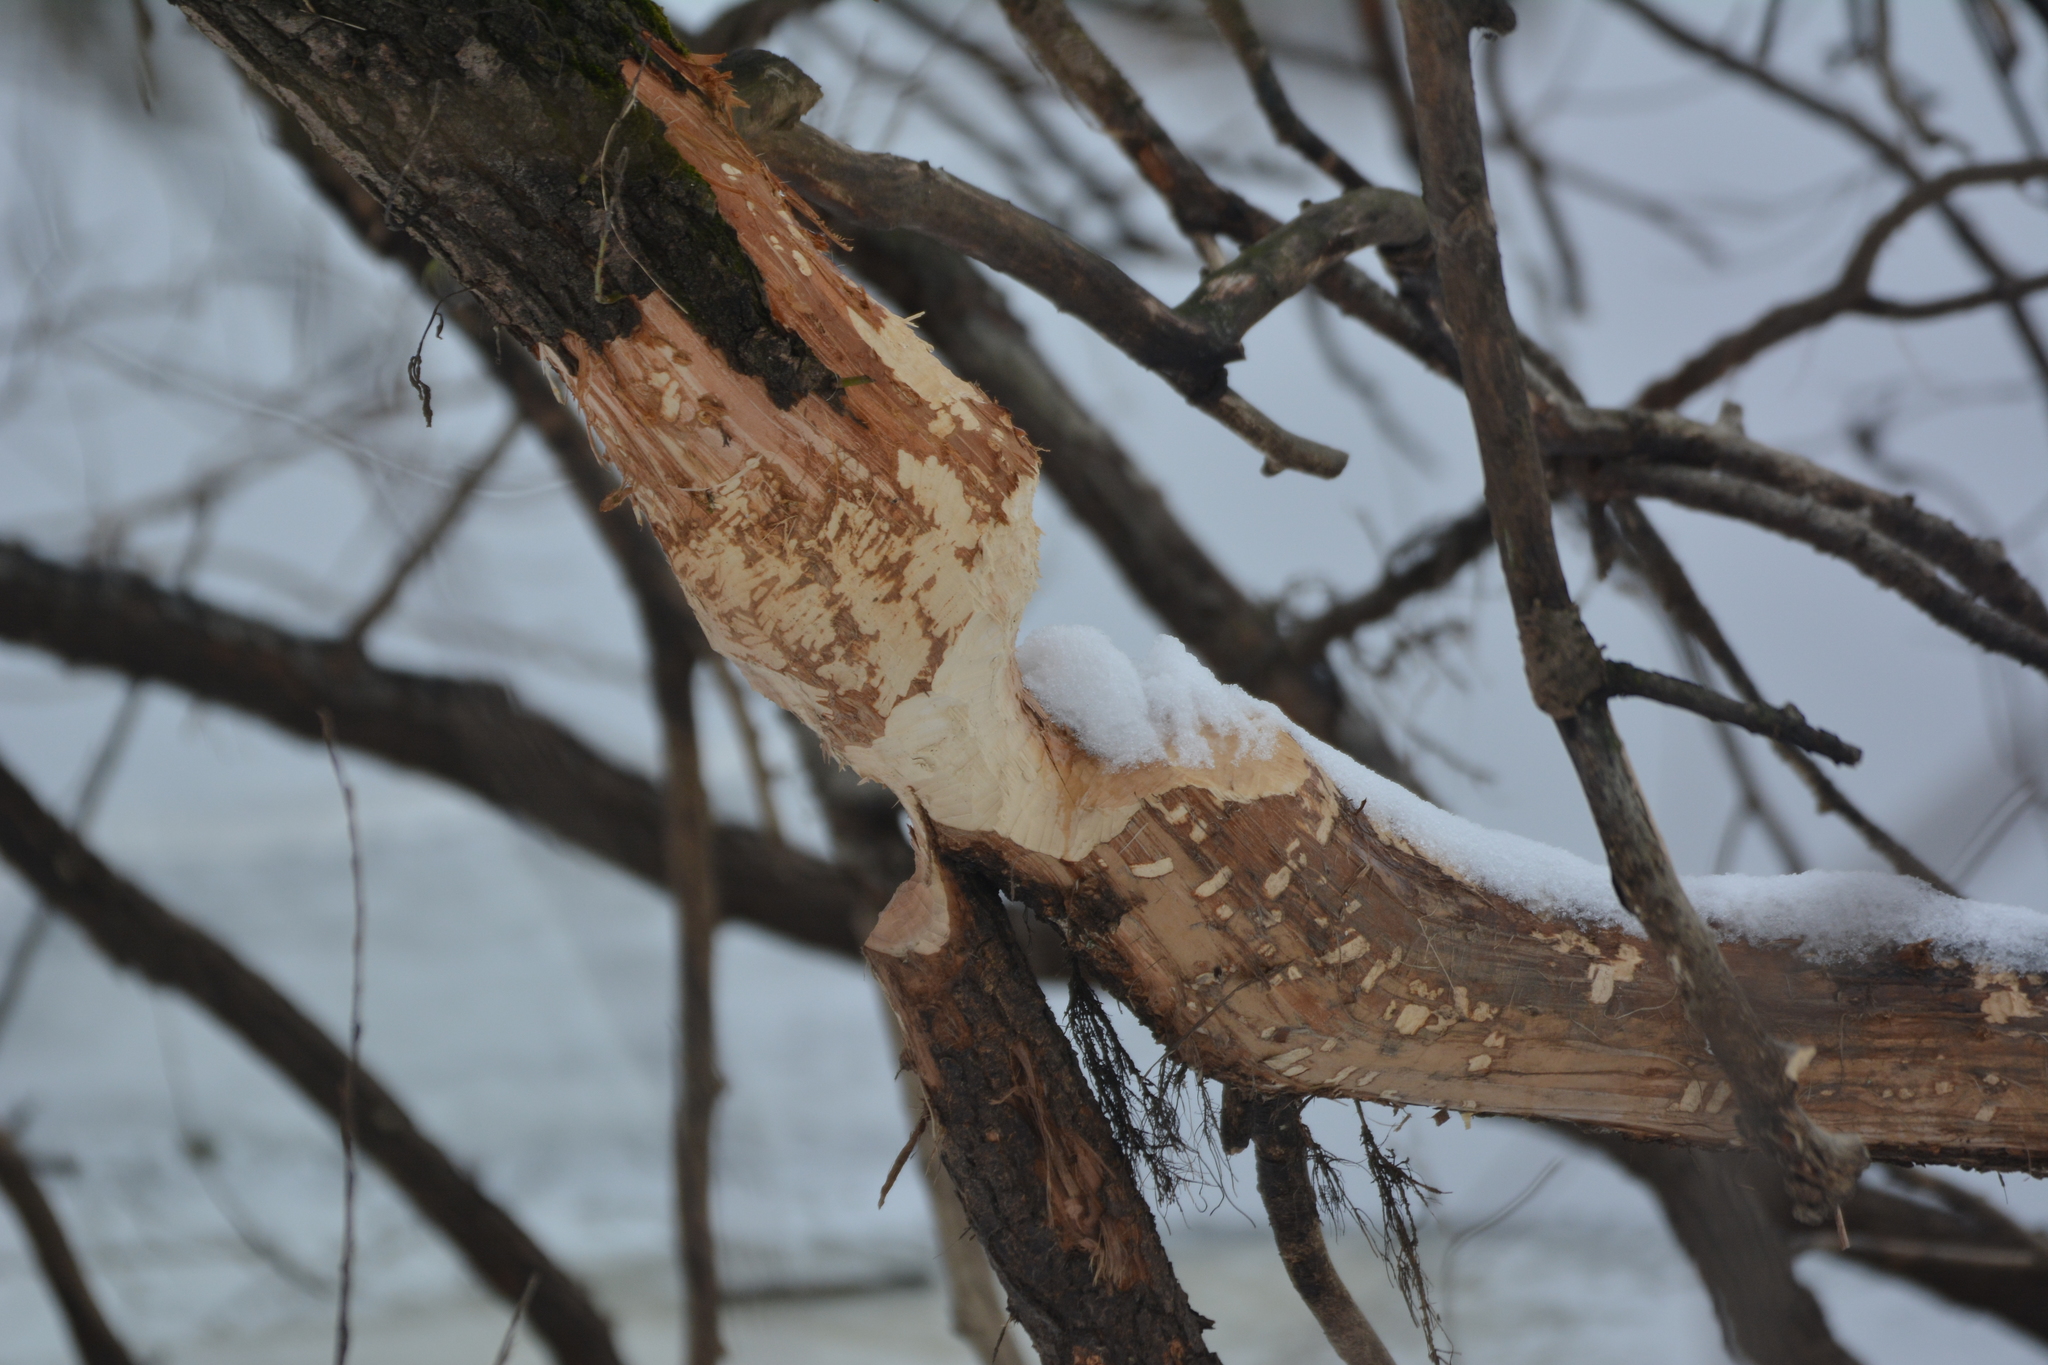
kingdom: Animalia
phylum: Chordata
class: Mammalia
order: Rodentia
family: Castoridae
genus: Castor
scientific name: Castor fiber
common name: Eurasian beaver
